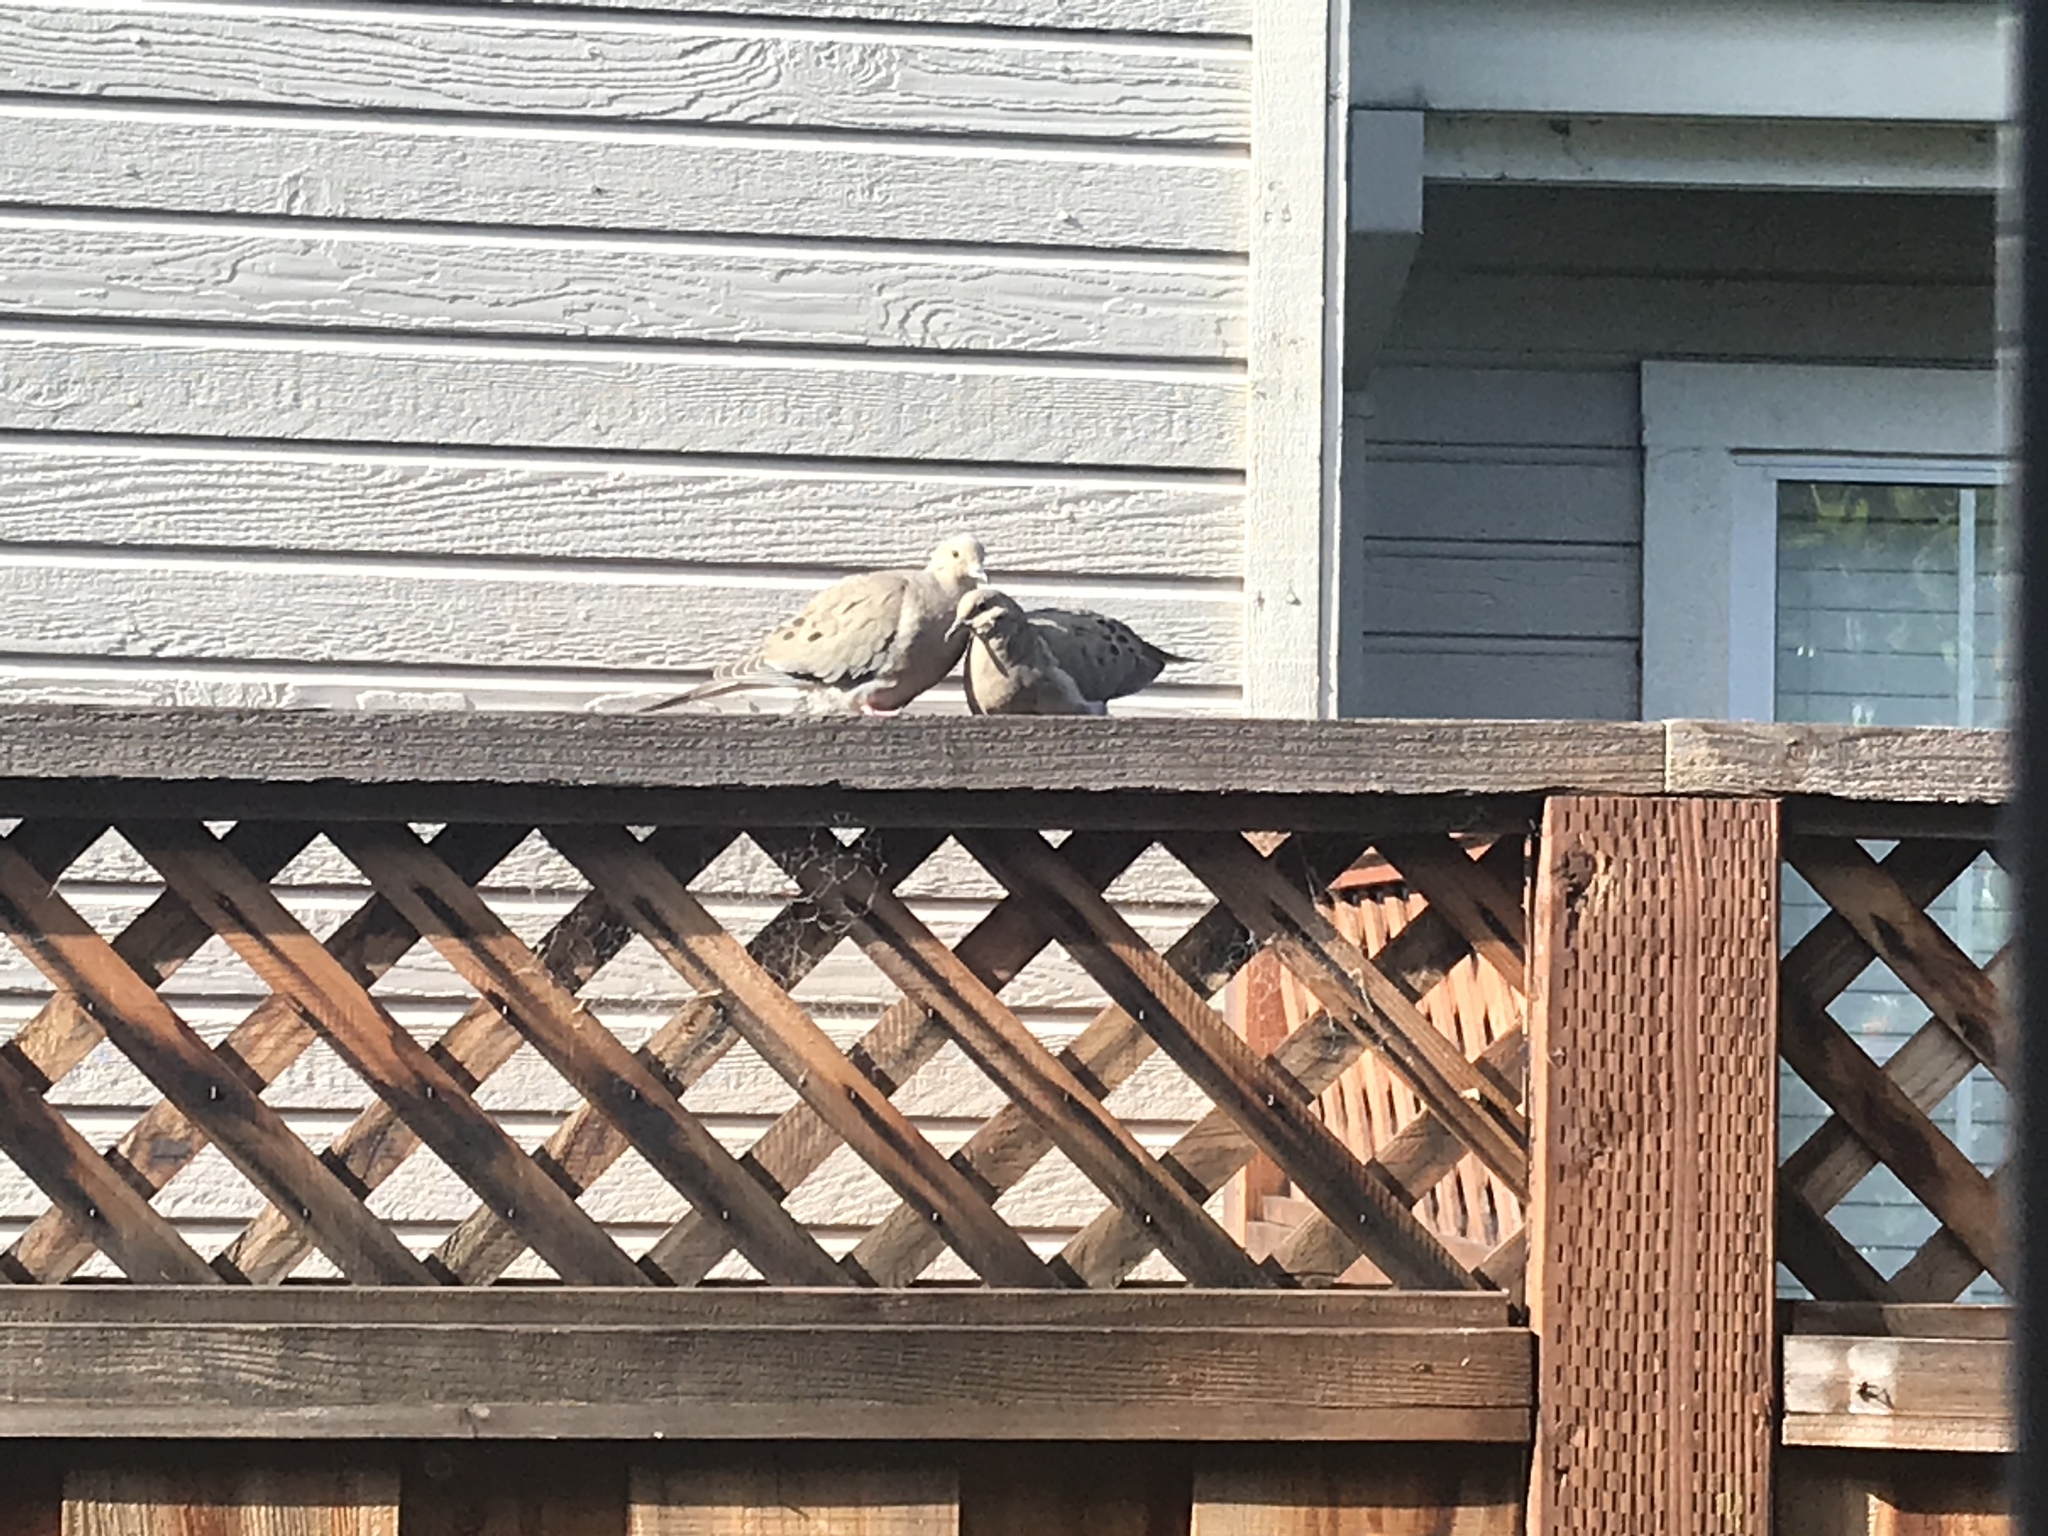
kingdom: Animalia
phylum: Chordata
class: Aves
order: Columbiformes
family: Columbidae
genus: Zenaida
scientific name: Zenaida macroura
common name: Mourning dove
